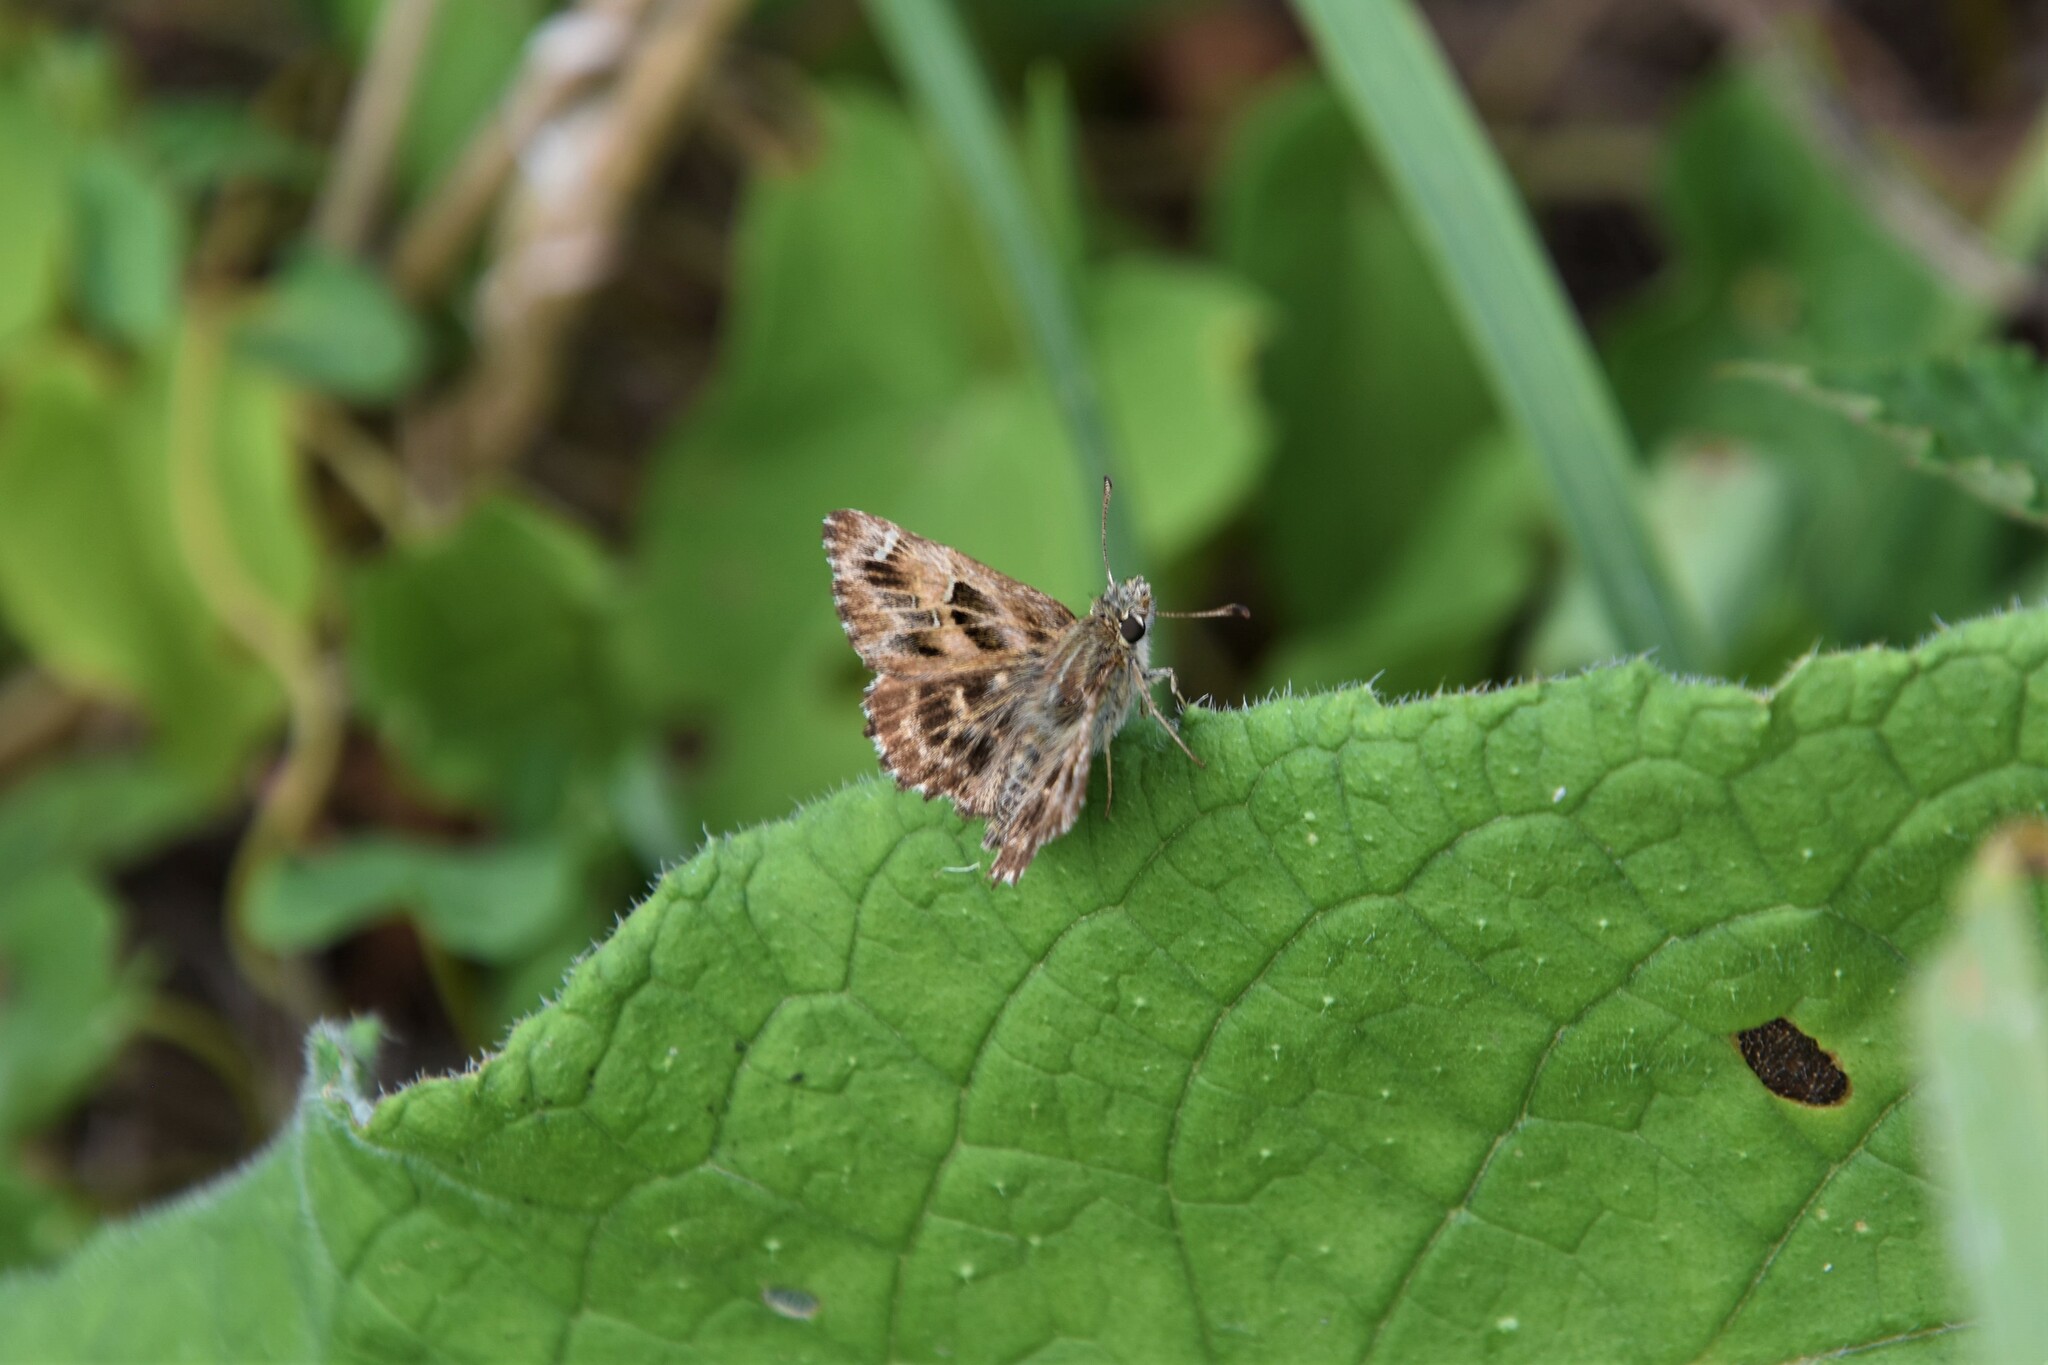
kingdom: Animalia
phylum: Arthropoda
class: Insecta
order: Lepidoptera
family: Hesperiidae
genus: Carcharodus
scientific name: Carcharodus alceae
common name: Mallow skipper
